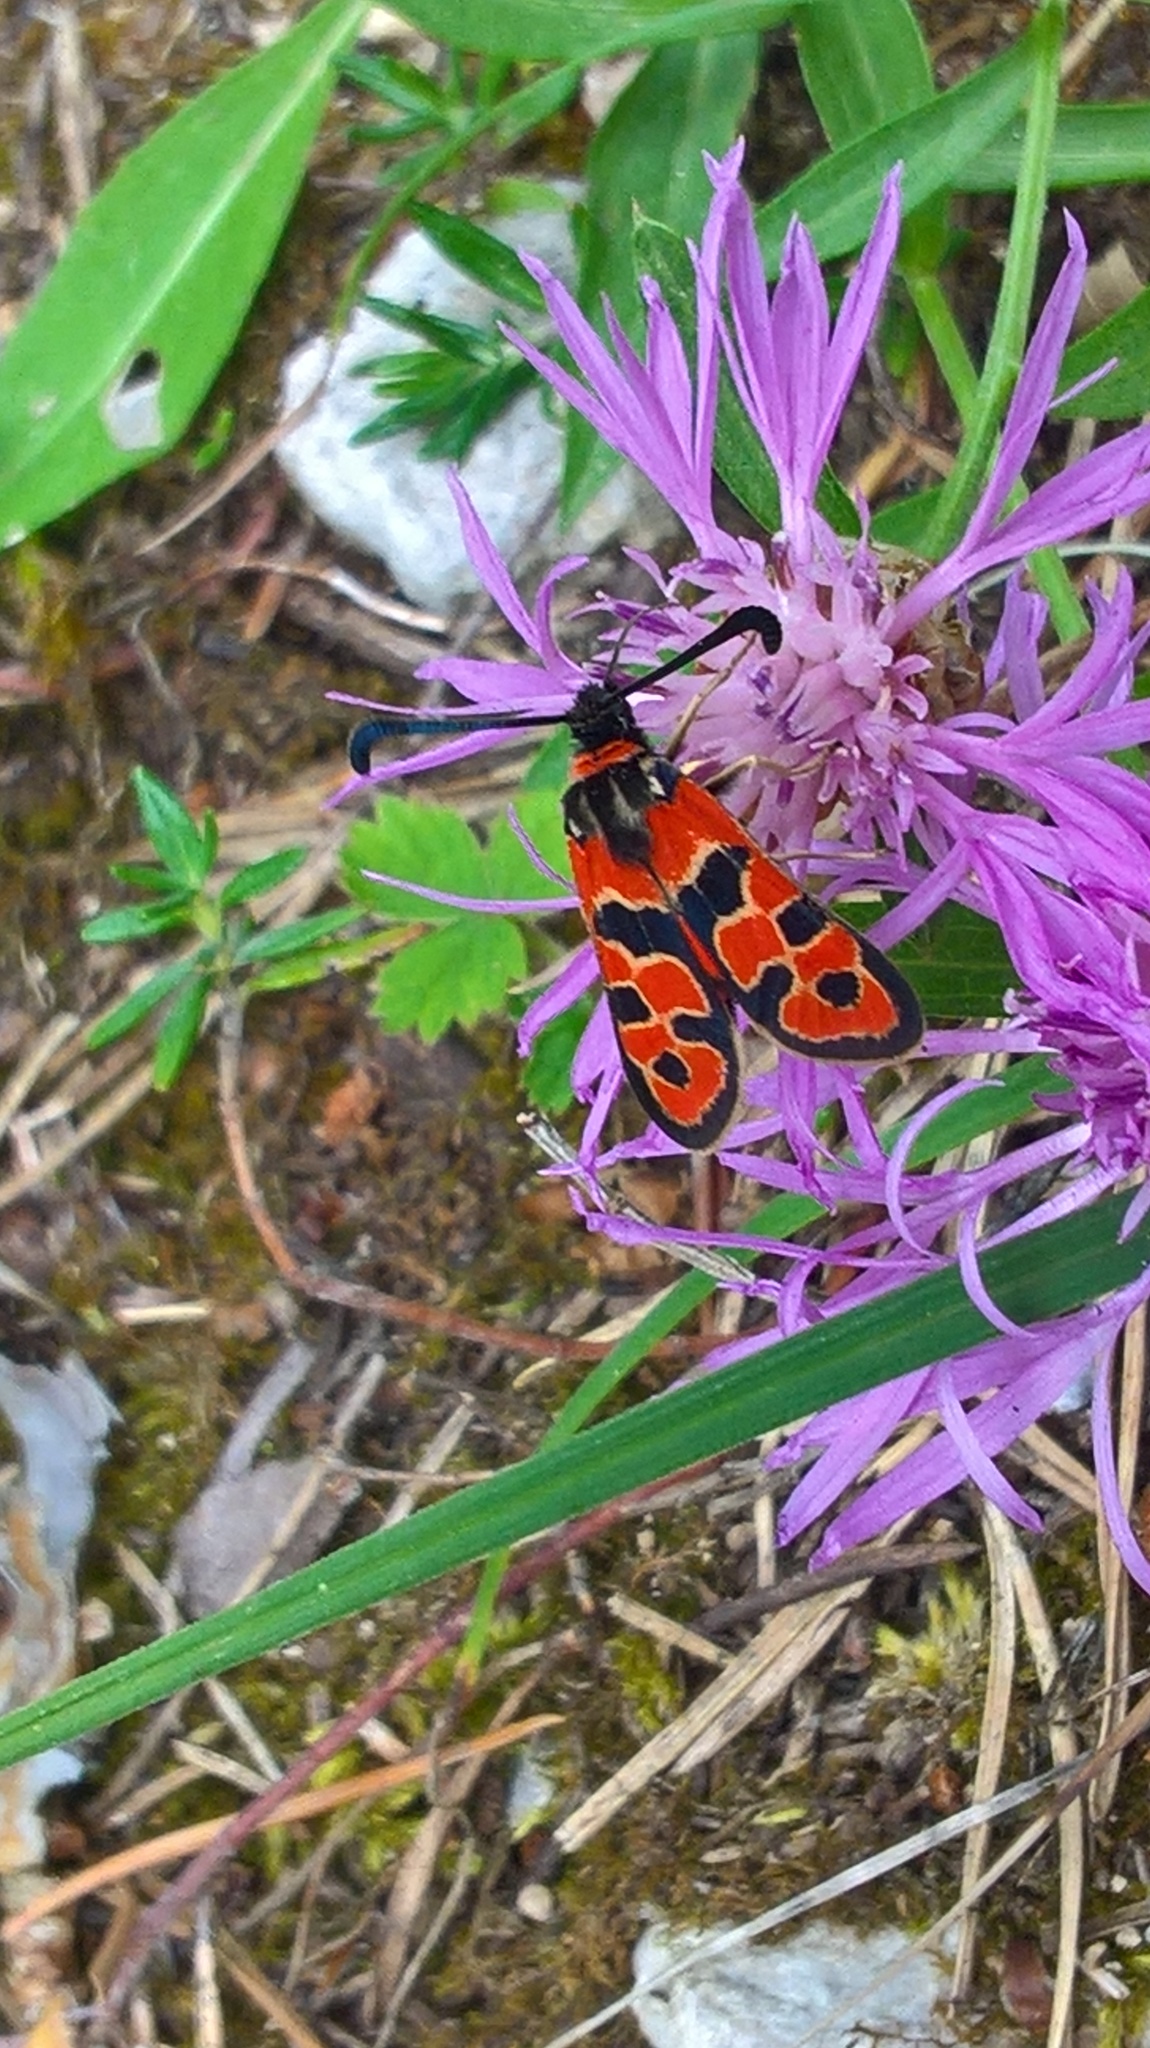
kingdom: Animalia
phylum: Arthropoda
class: Insecta
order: Lepidoptera
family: Zygaenidae
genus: Zygaena
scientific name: Zygaena fausta
